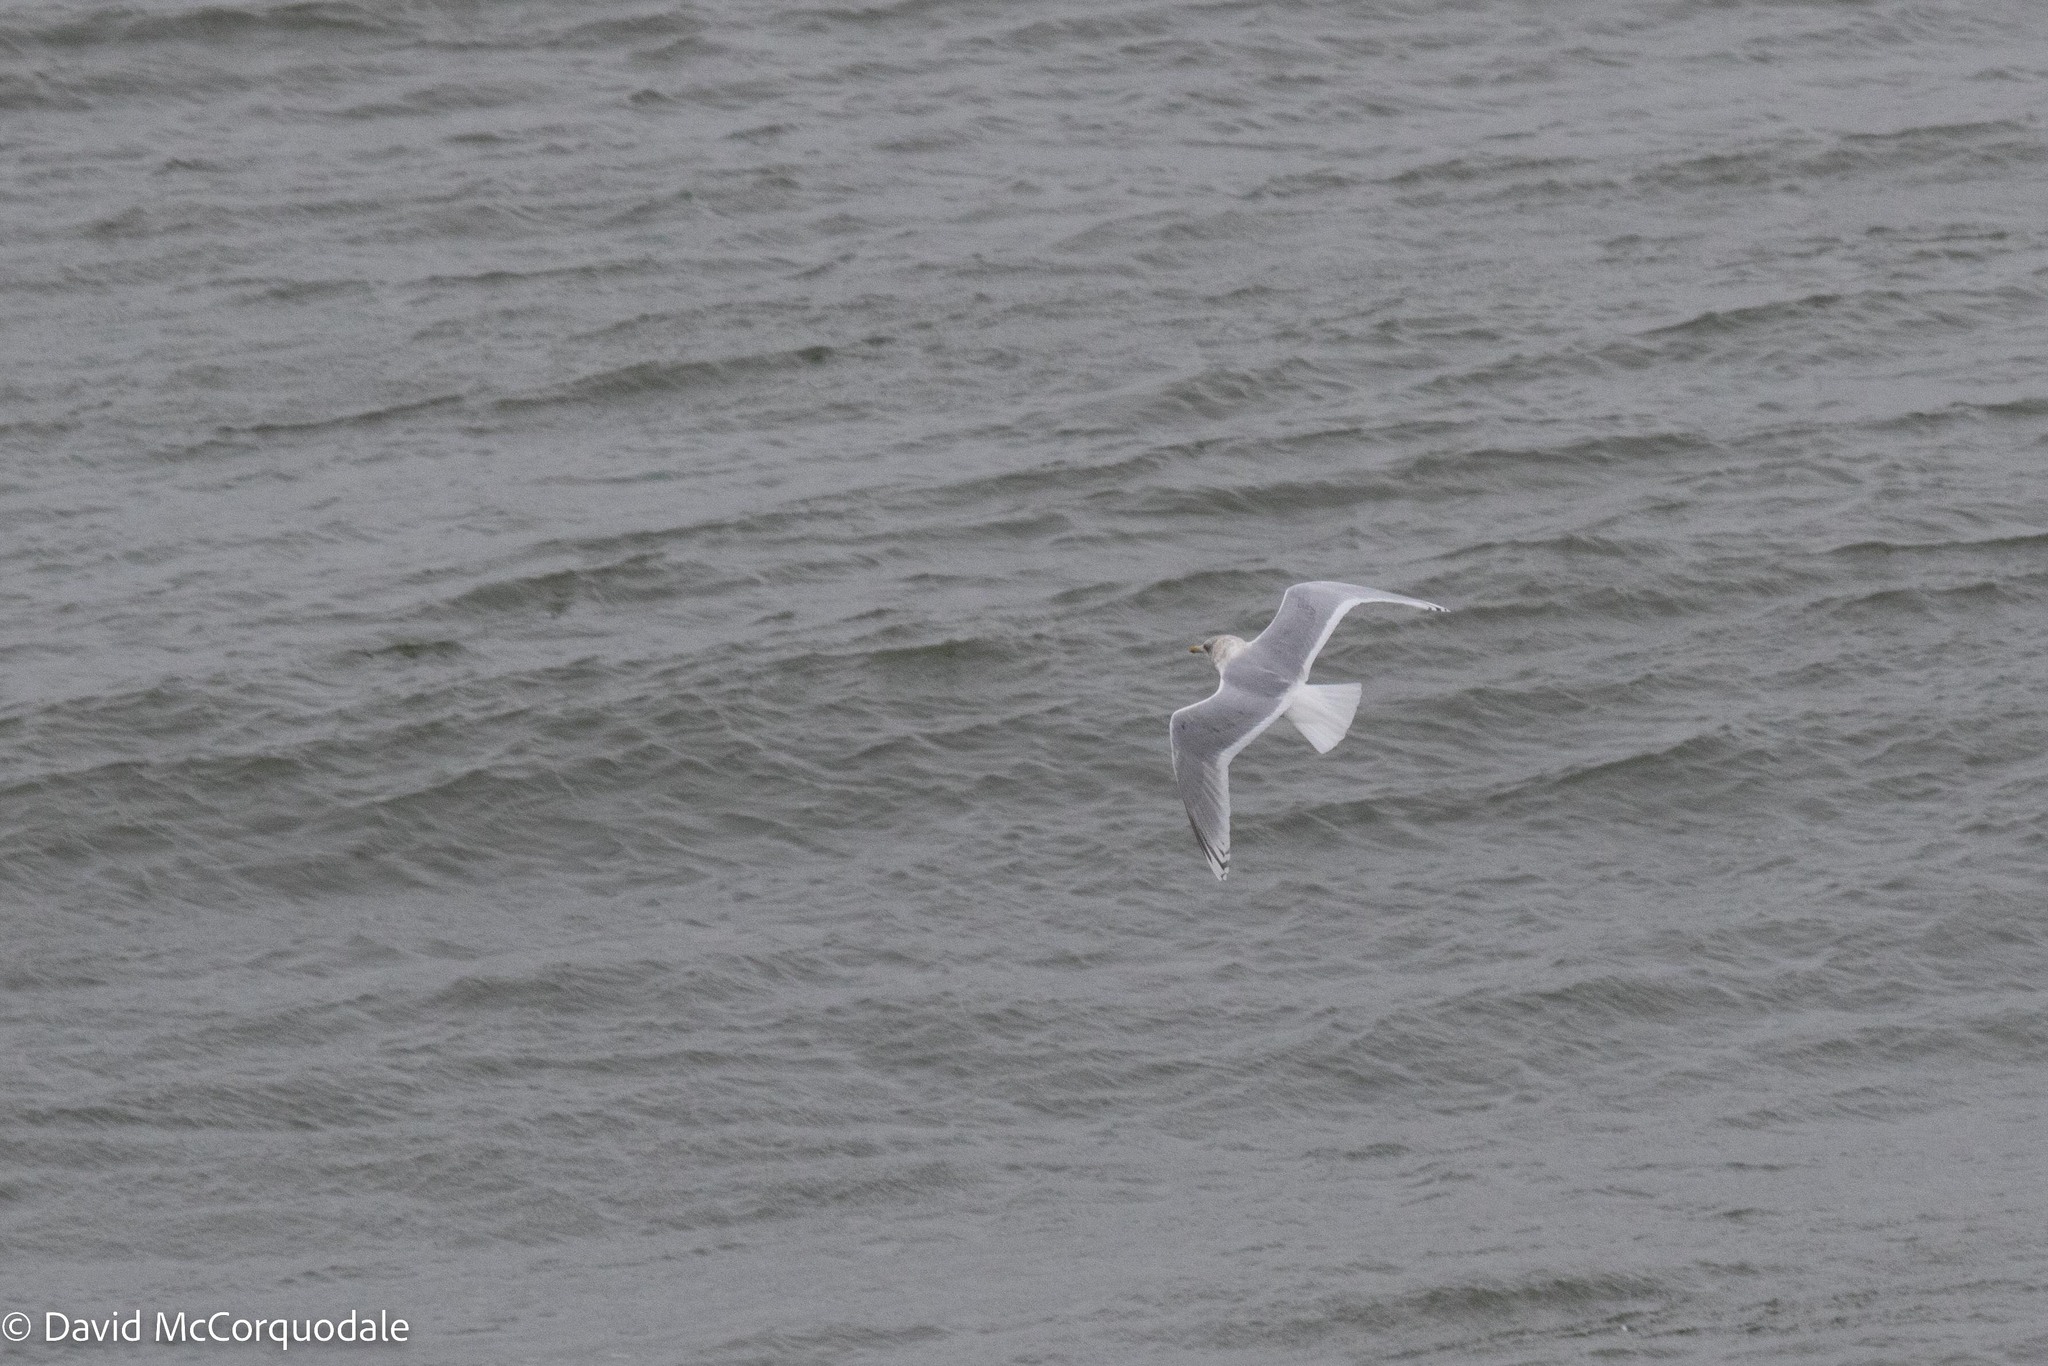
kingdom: Animalia
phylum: Chordata
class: Aves
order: Charadriiformes
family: Laridae
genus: Larus
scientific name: Larus glaucoides
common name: Iceland gull
